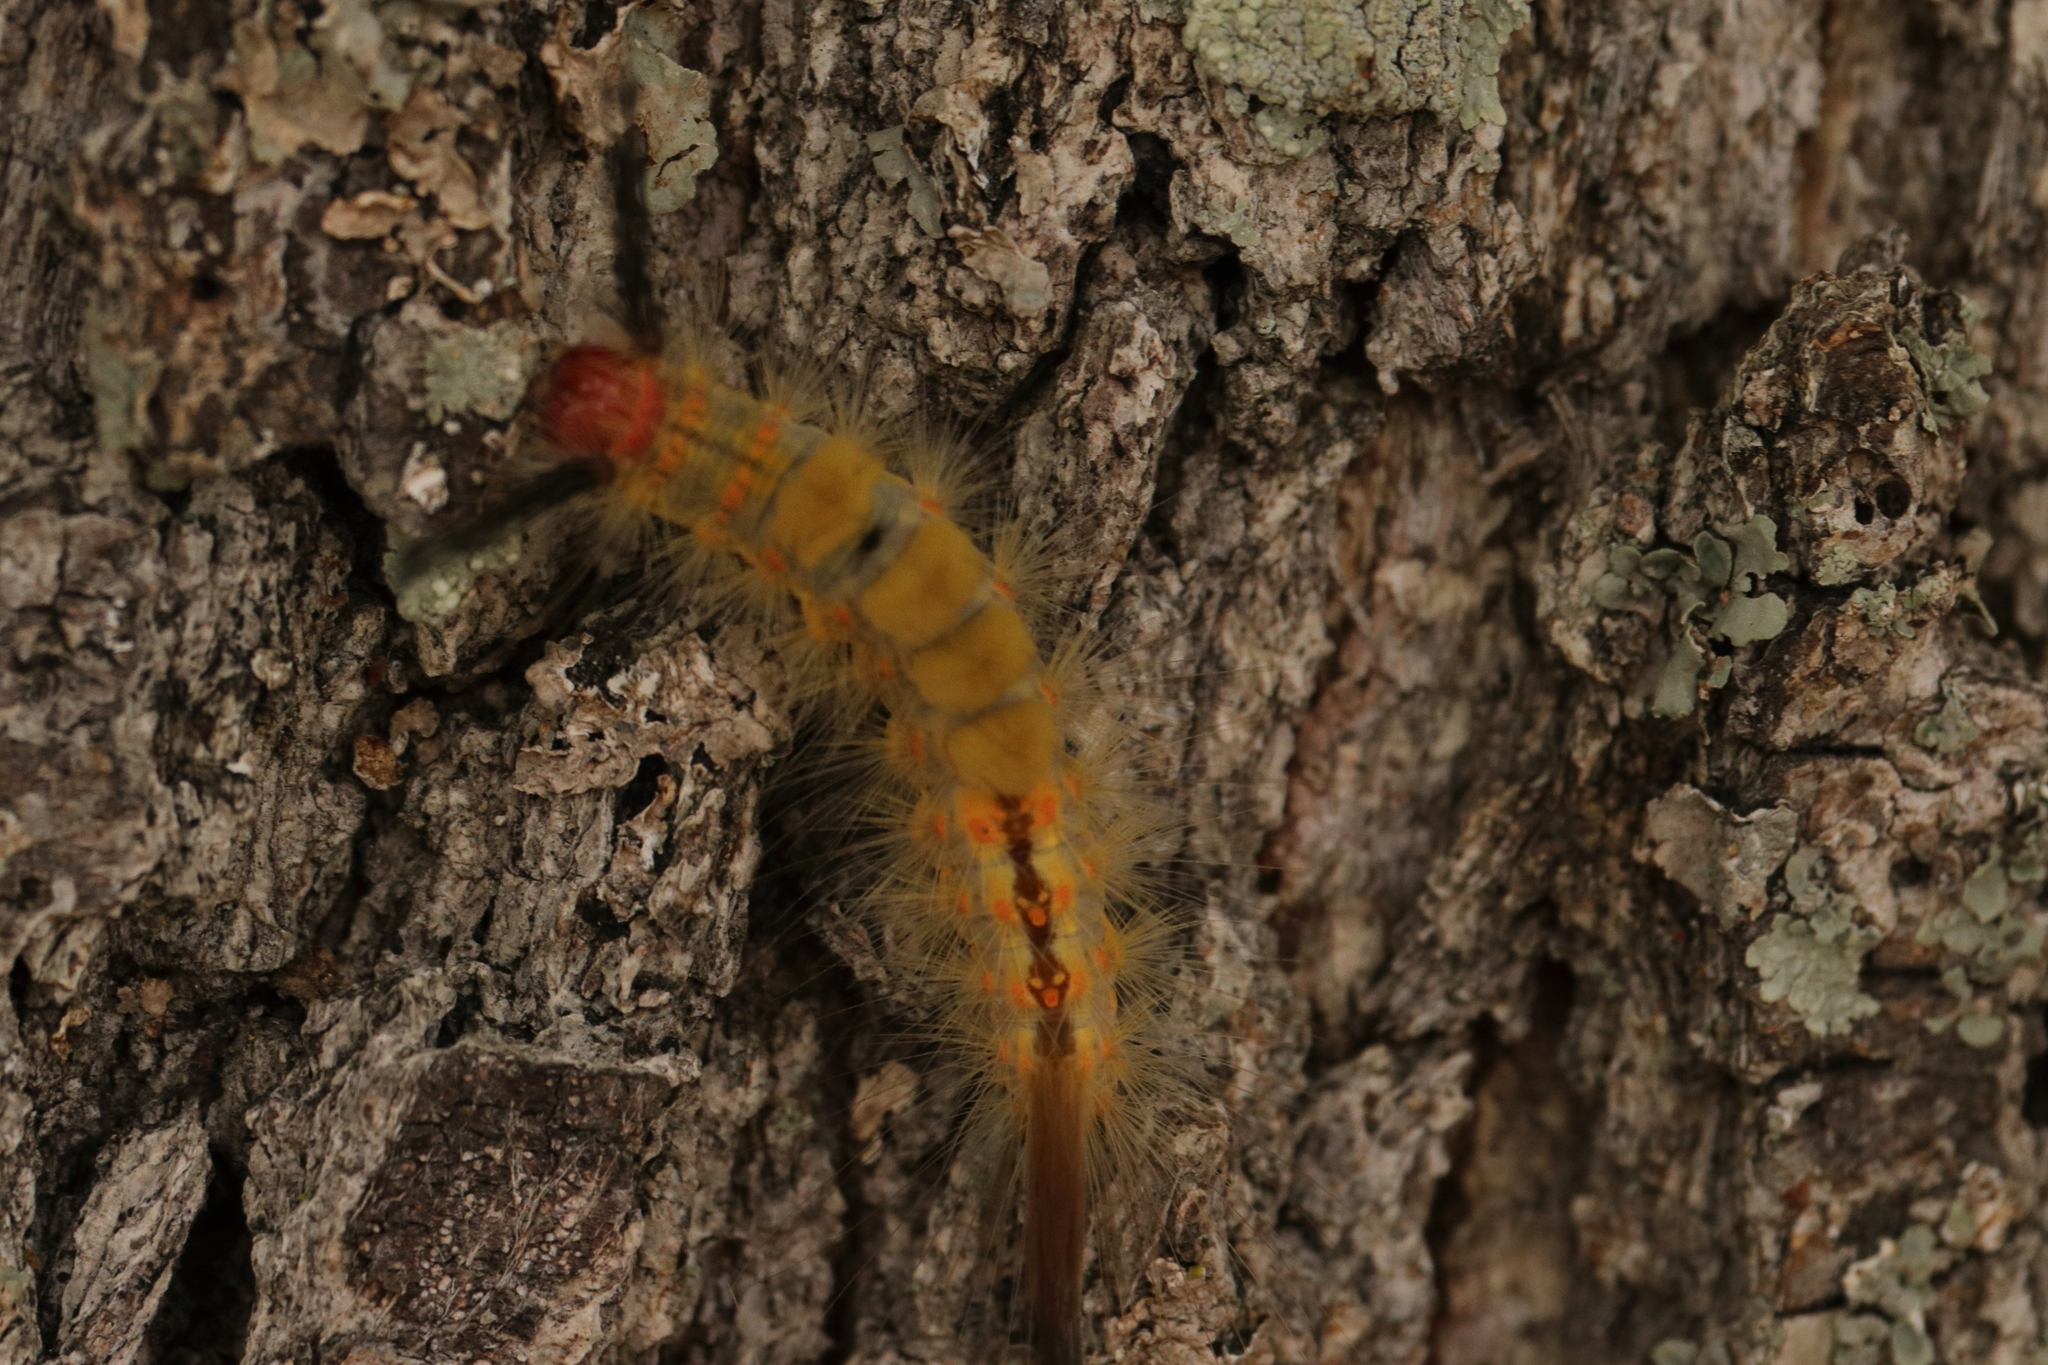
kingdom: Animalia
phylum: Arthropoda
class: Insecta
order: Lepidoptera
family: Erebidae
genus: Orgyia
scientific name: Orgyia detrita
